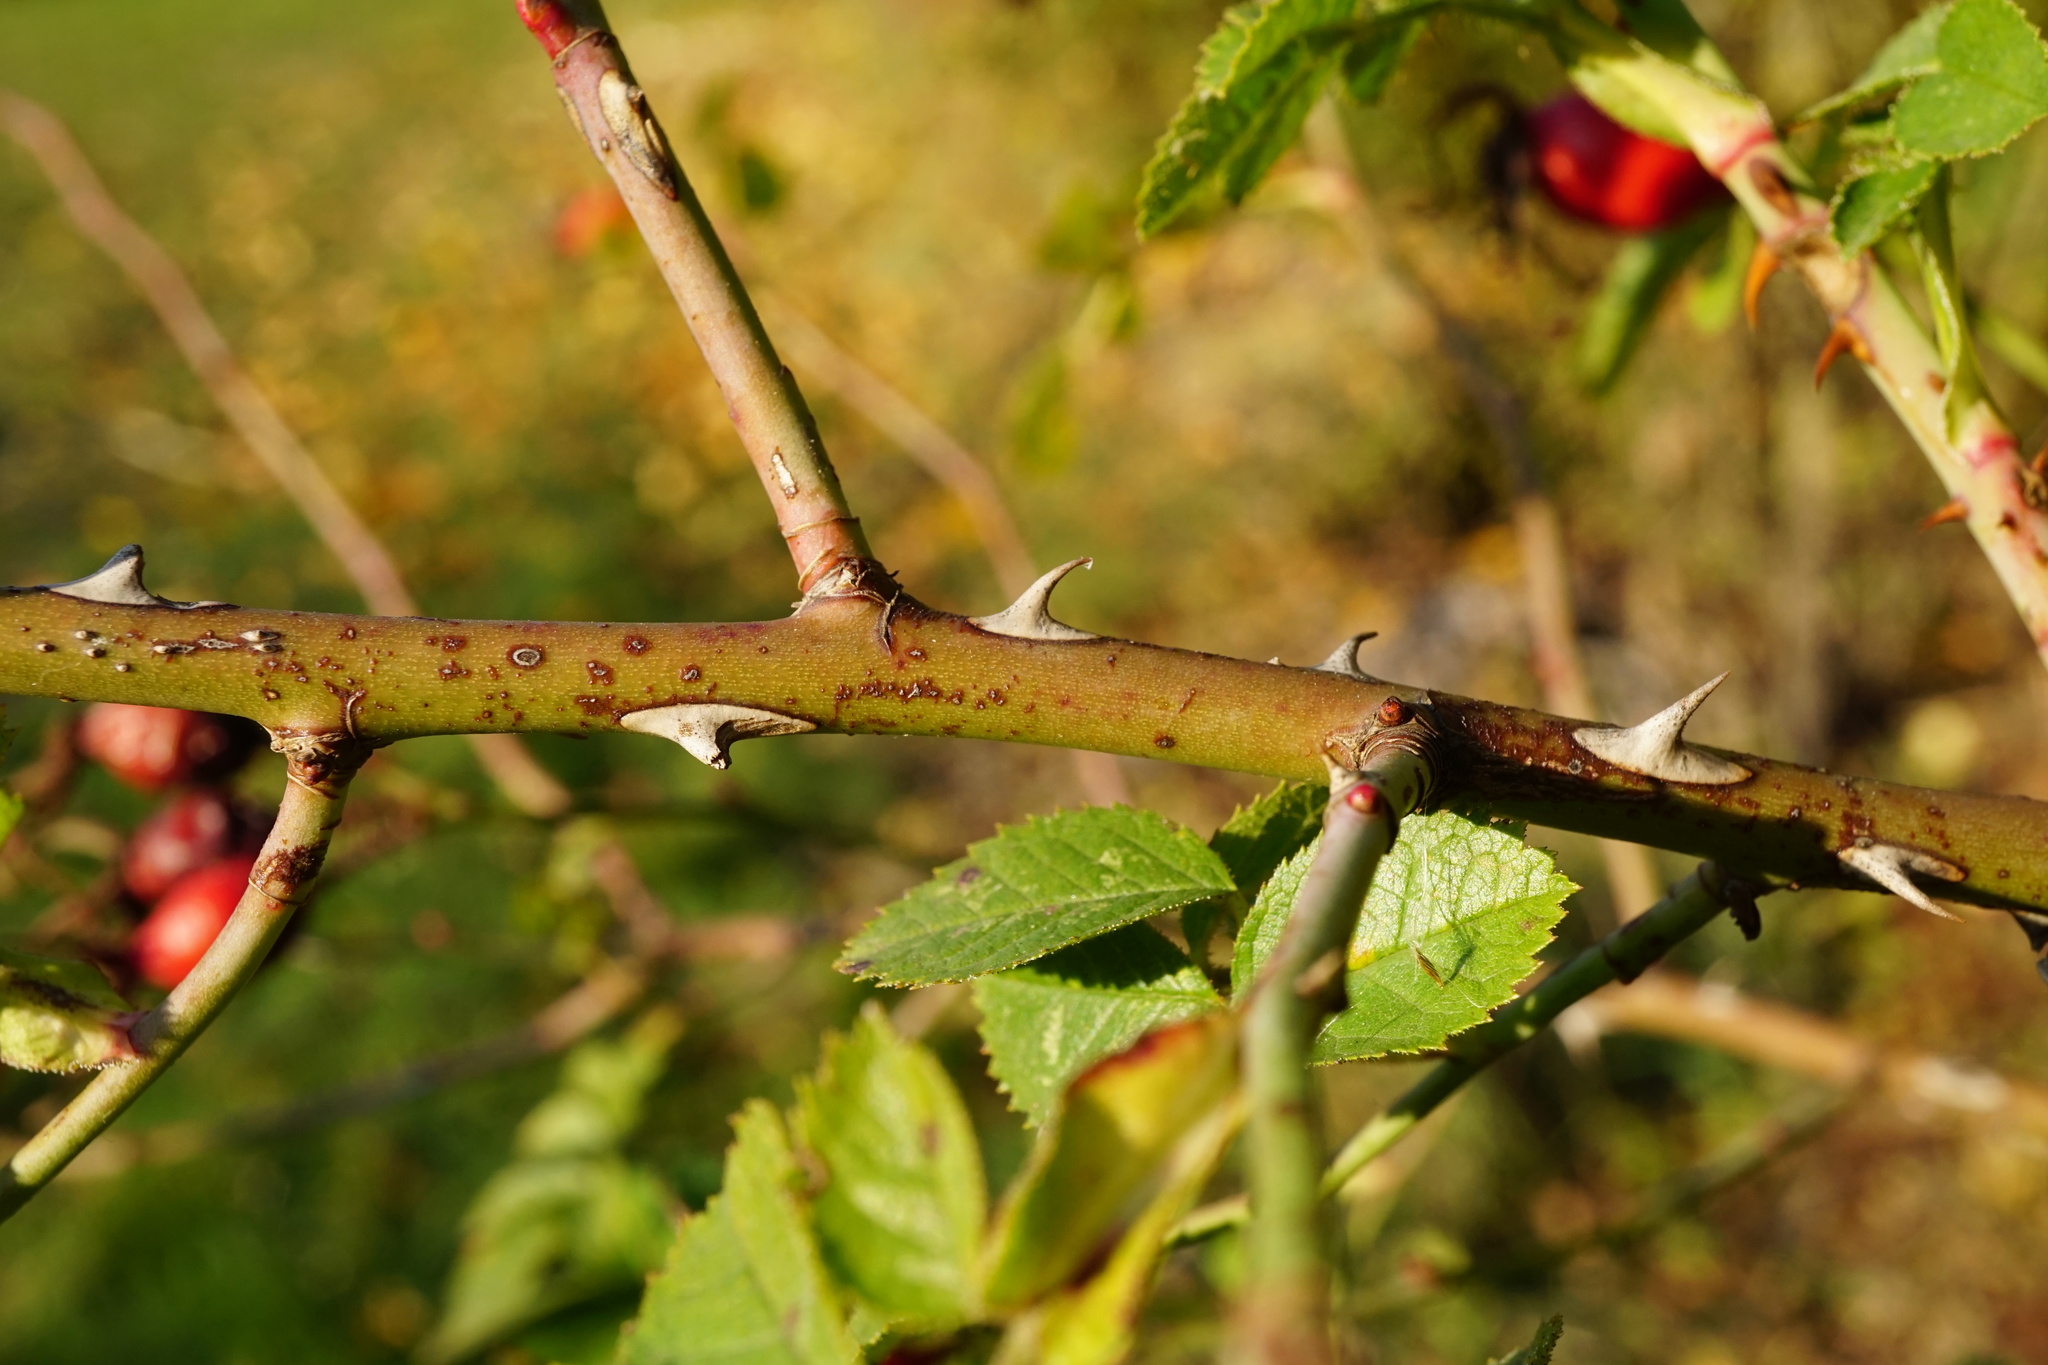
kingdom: Plantae
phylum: Tracheophyta
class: Magnoliopsida
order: Rosales
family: Rosaceae
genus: Rosa
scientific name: Rosa rubiginosa
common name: Sweet-briar
